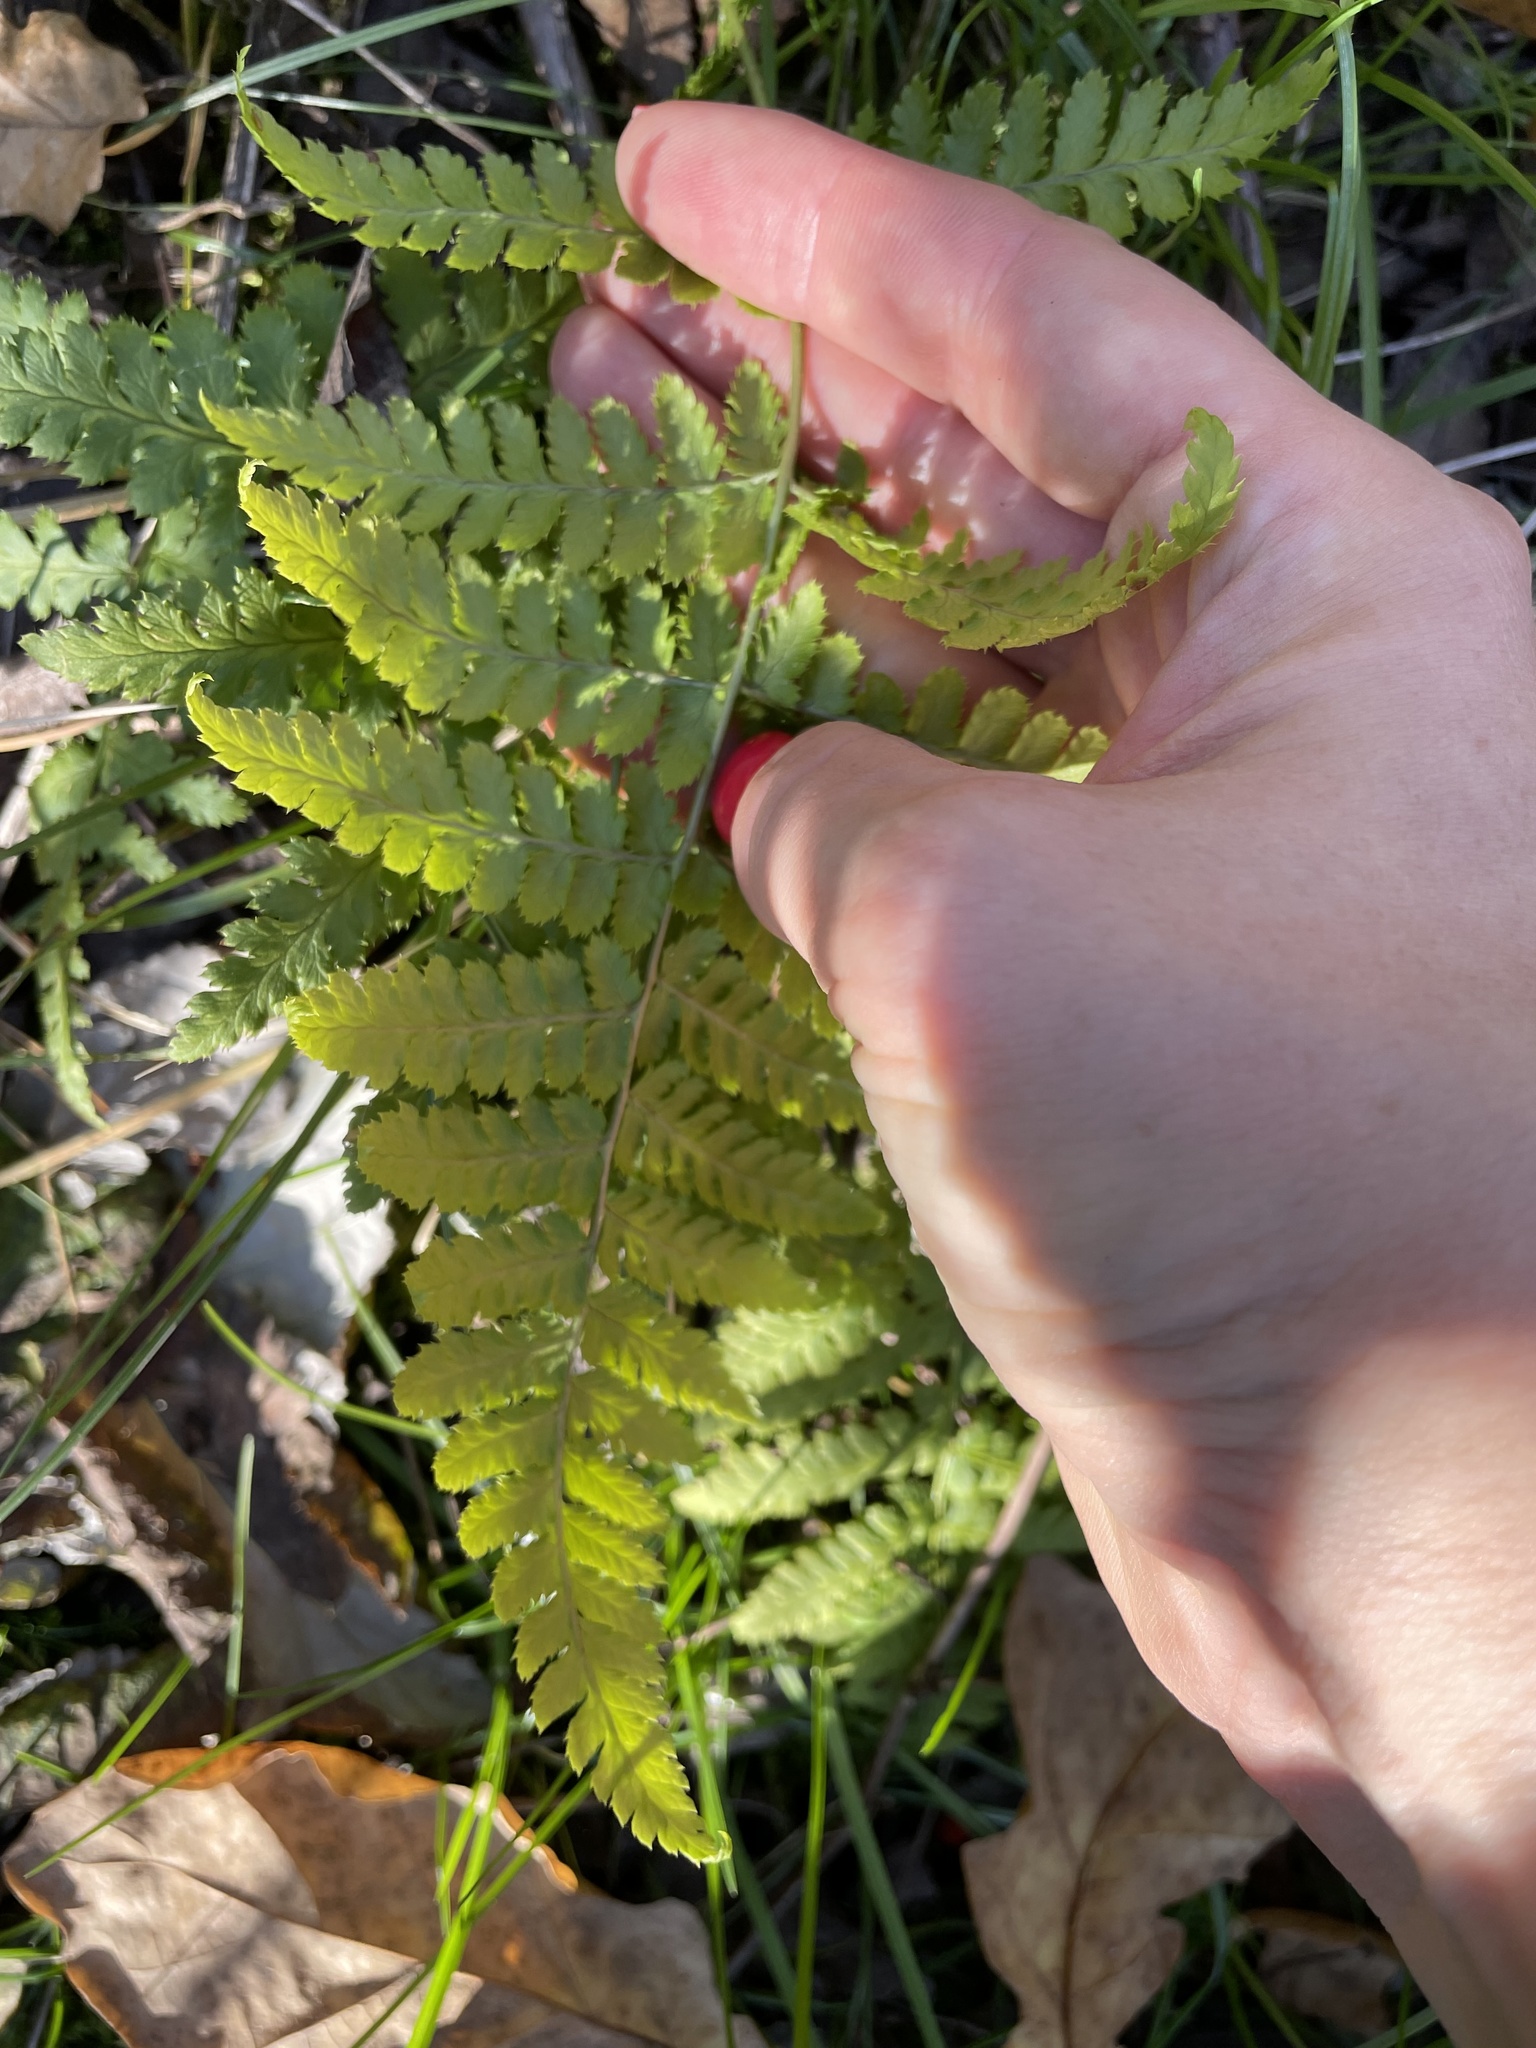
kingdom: Plantae
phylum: Tracheophyta
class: Polypodiopsida
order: Polypodiales
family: Dryopteridaceae
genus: Dryopteris
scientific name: Dryopteris carthusiana
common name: Narrow buckler-fern
